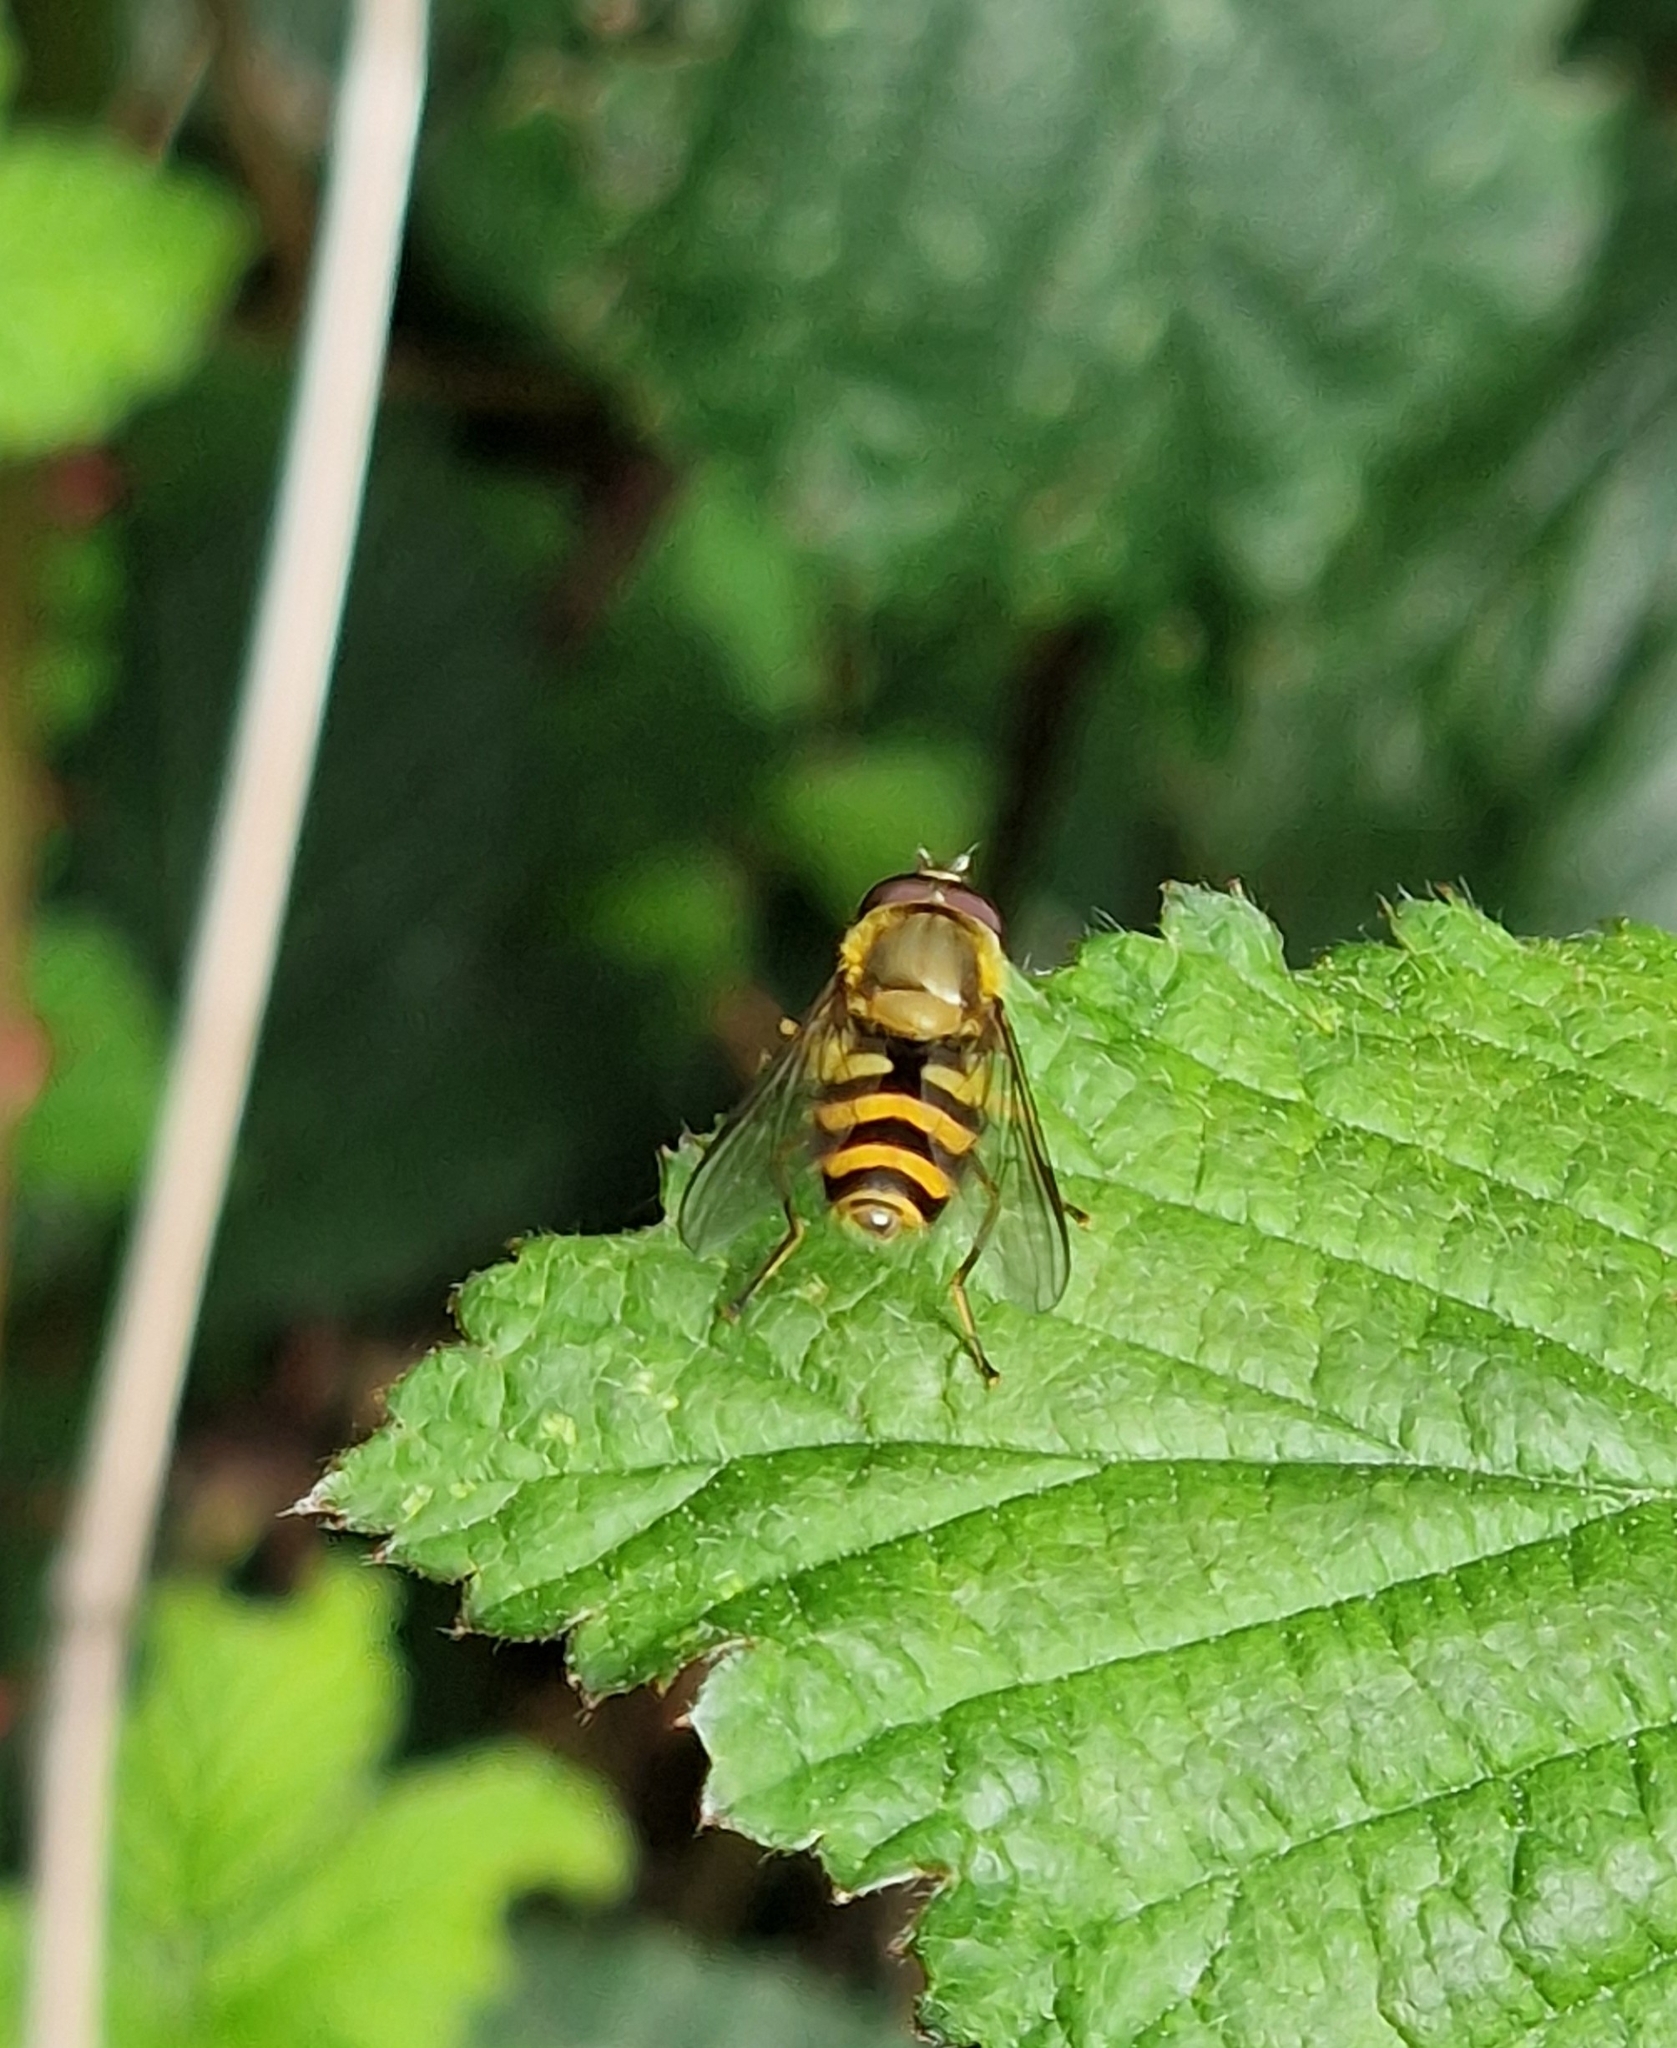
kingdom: Animalia
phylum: Arthropoda
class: Insecta
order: Diptera
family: Syrphidae
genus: Syrphus
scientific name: Syrphus
